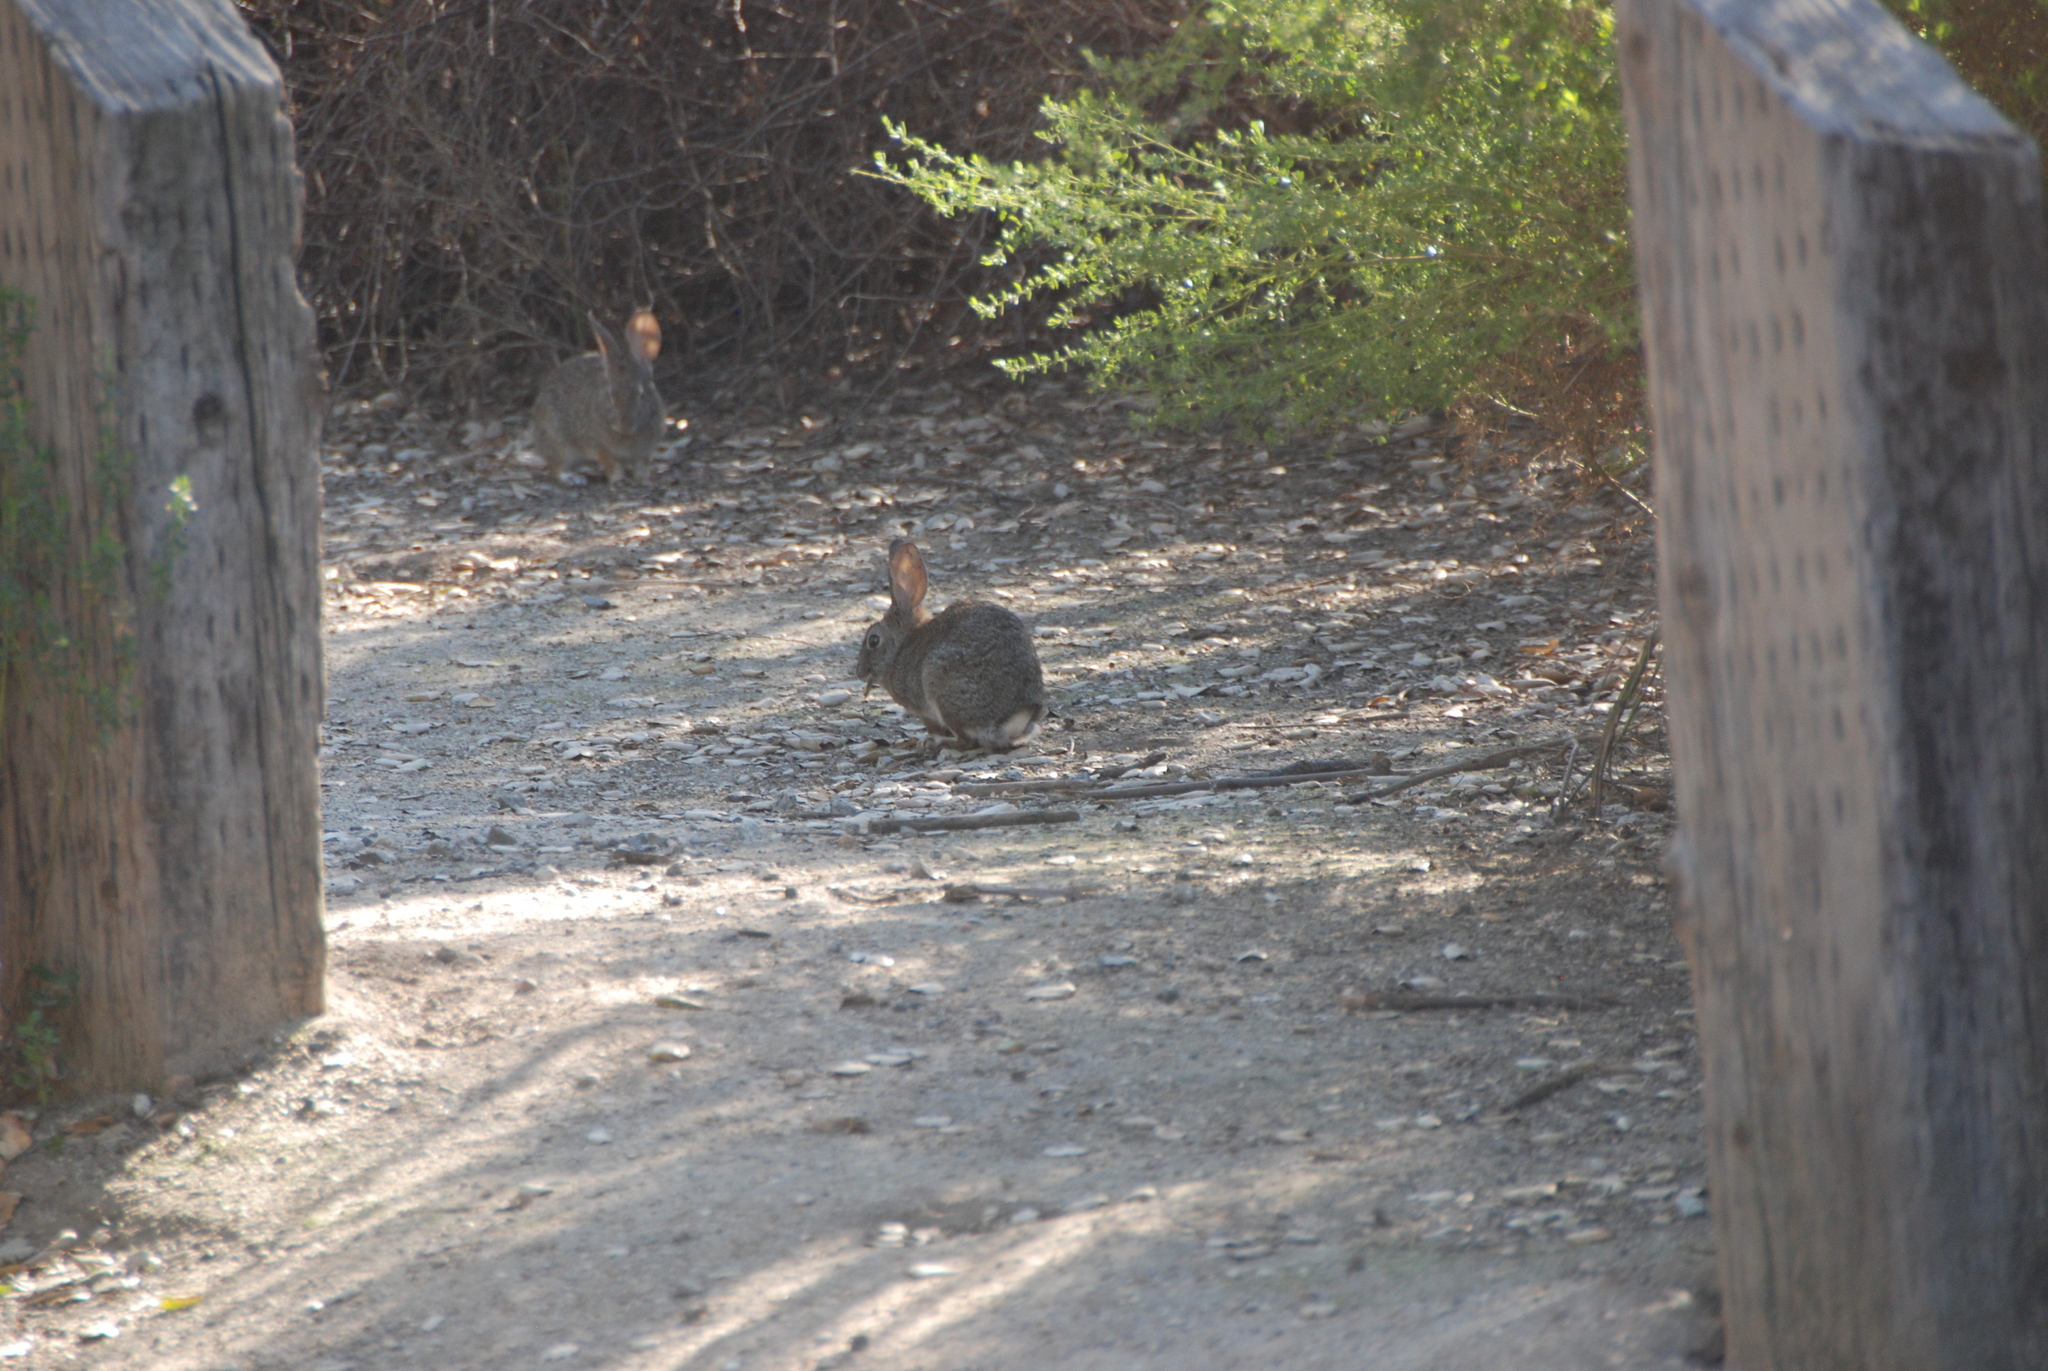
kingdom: Animalia
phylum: Chordata
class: Mammalia
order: Lagomorpha
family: Leporidae
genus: Sylvilagus
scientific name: Sylvilagus audubonii
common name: Desert cottontail
